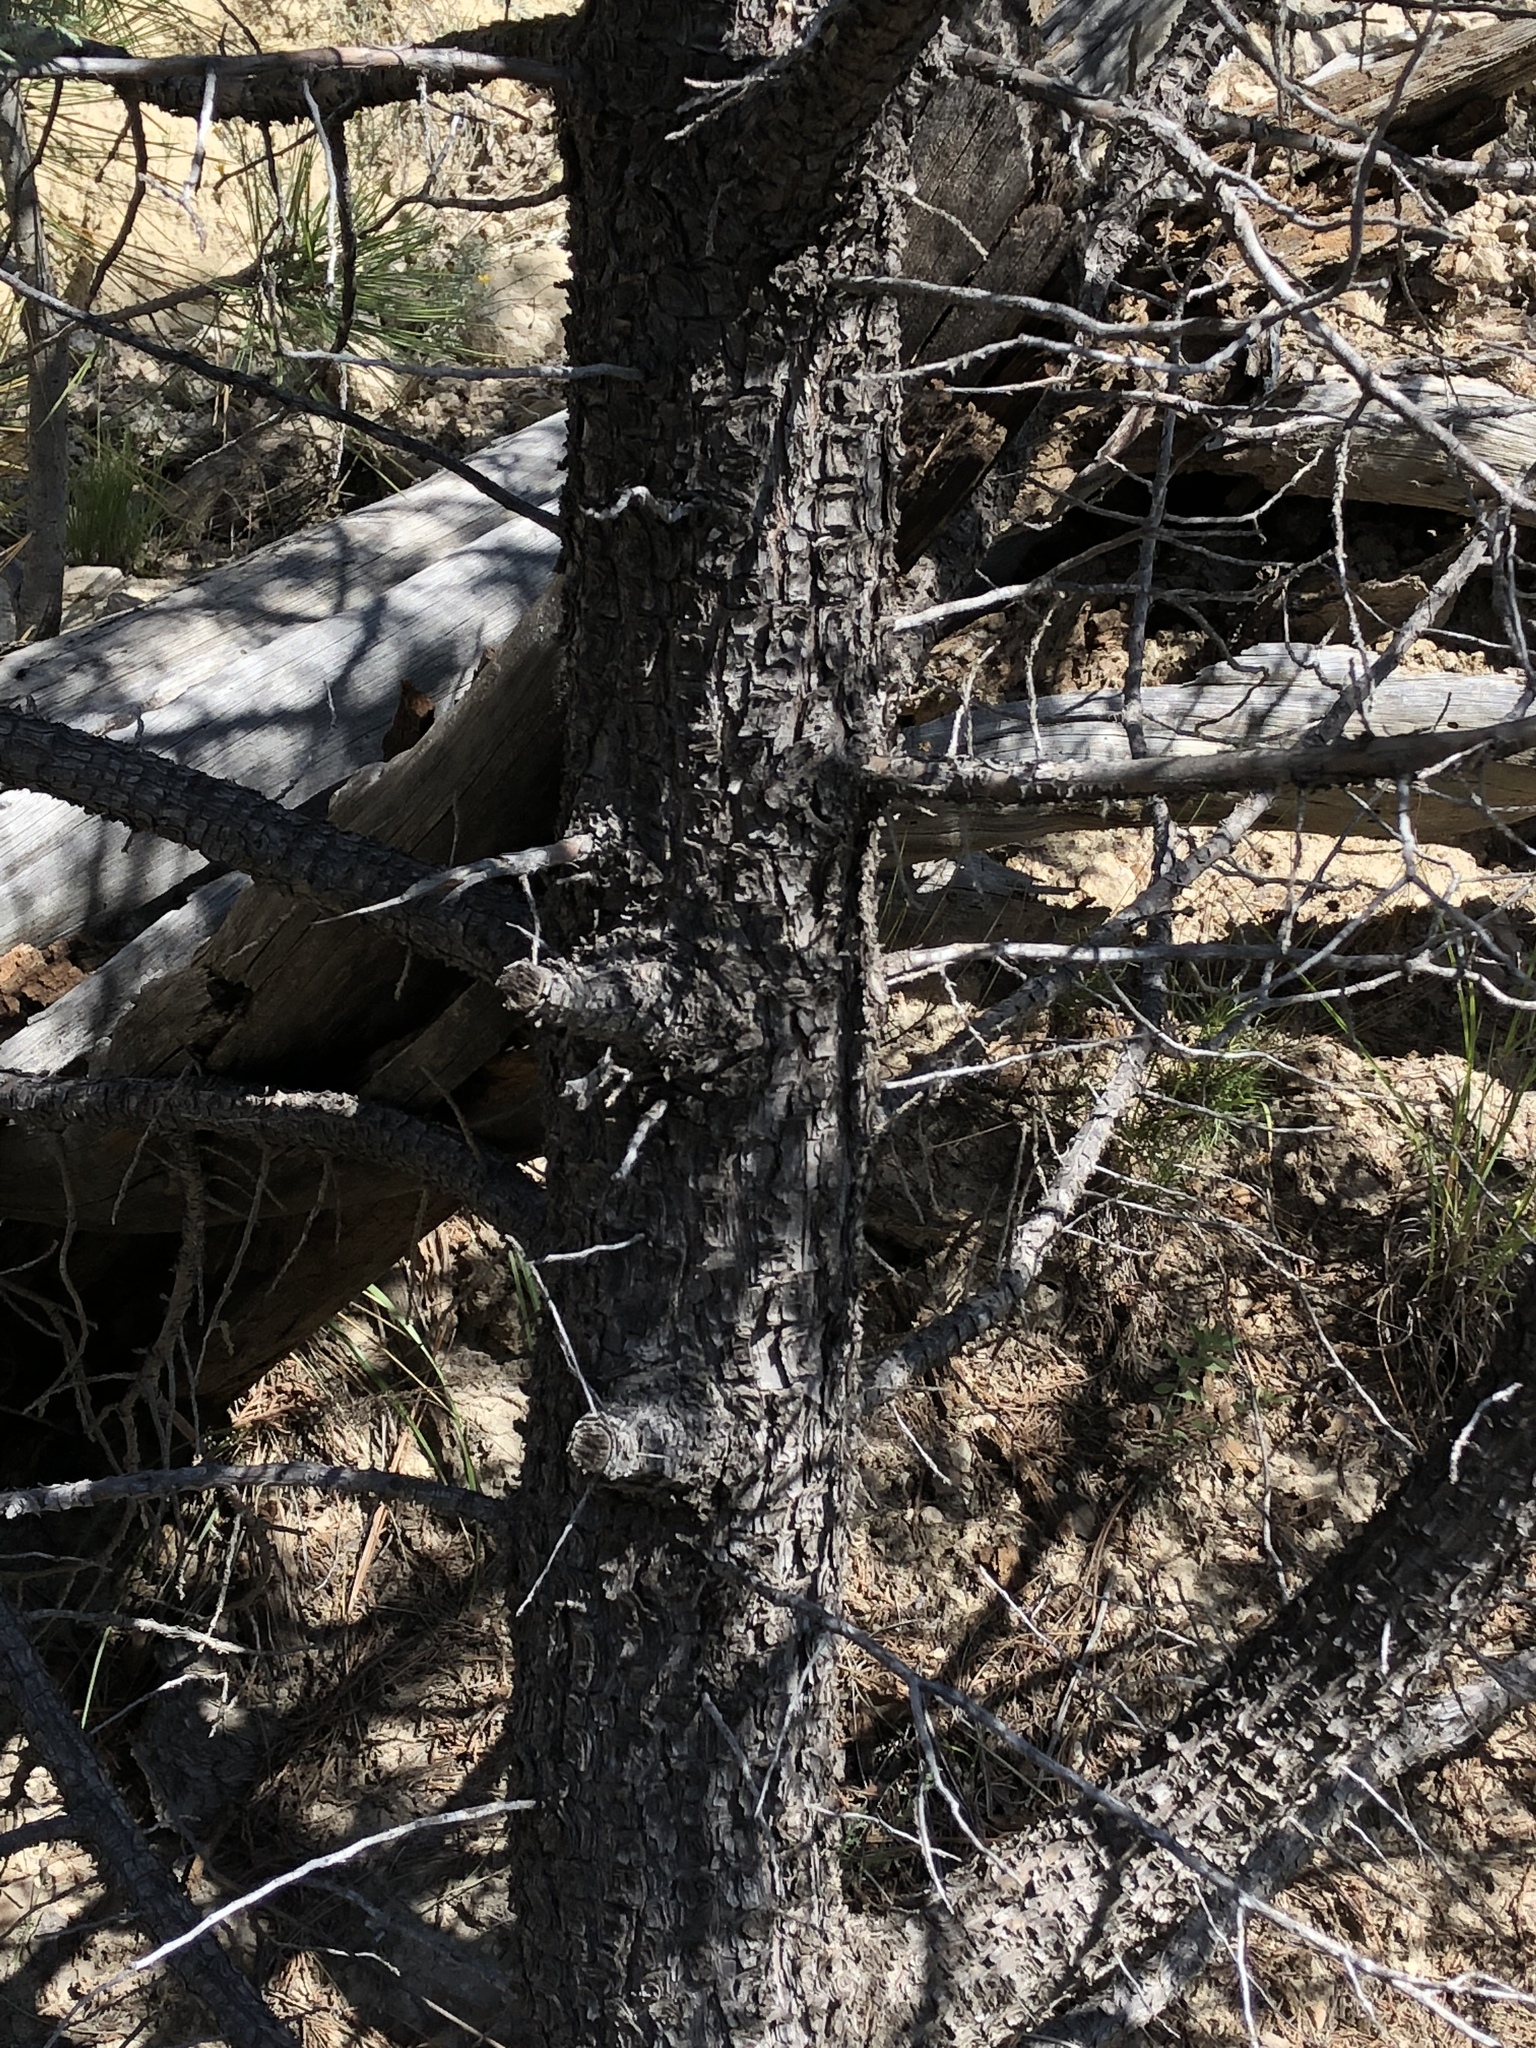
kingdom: Plantae
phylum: Tracheophyta
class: Pinopsida
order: Pinales
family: Cupressaceae
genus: Juniperus
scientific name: Juniperus deppeana
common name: Alligator juniper
